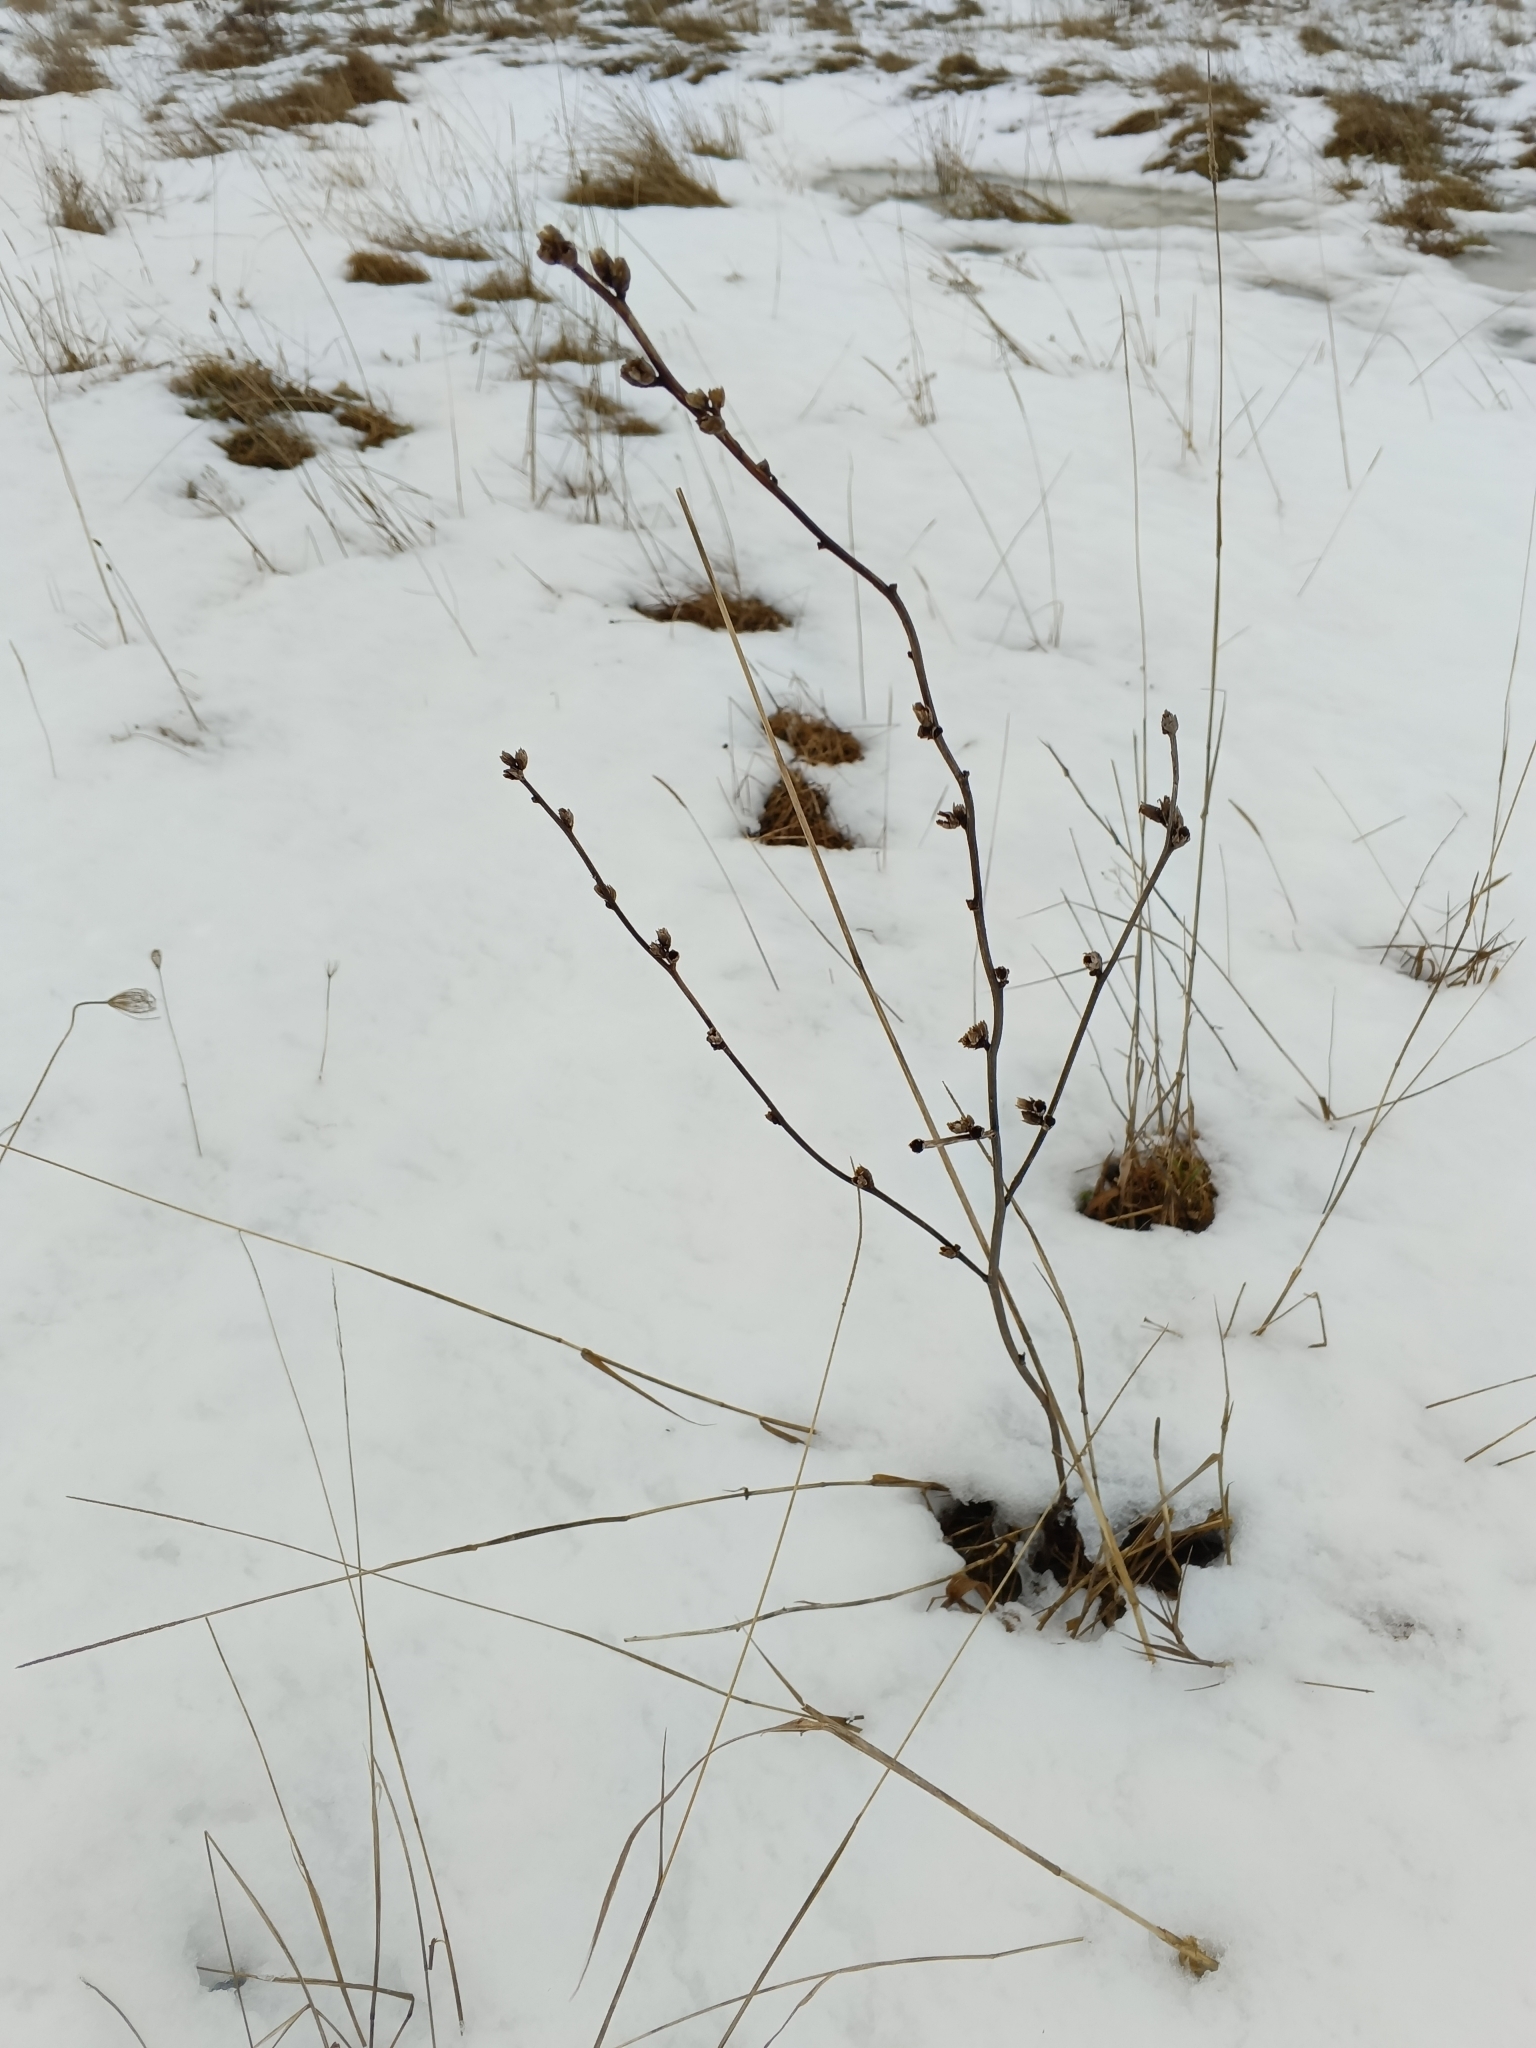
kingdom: Plantae
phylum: Tracheophyta
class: Magnoliopsida
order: Asterales
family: Asteraceae
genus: Cichorium
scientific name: Cichorium intybus
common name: Chicory
